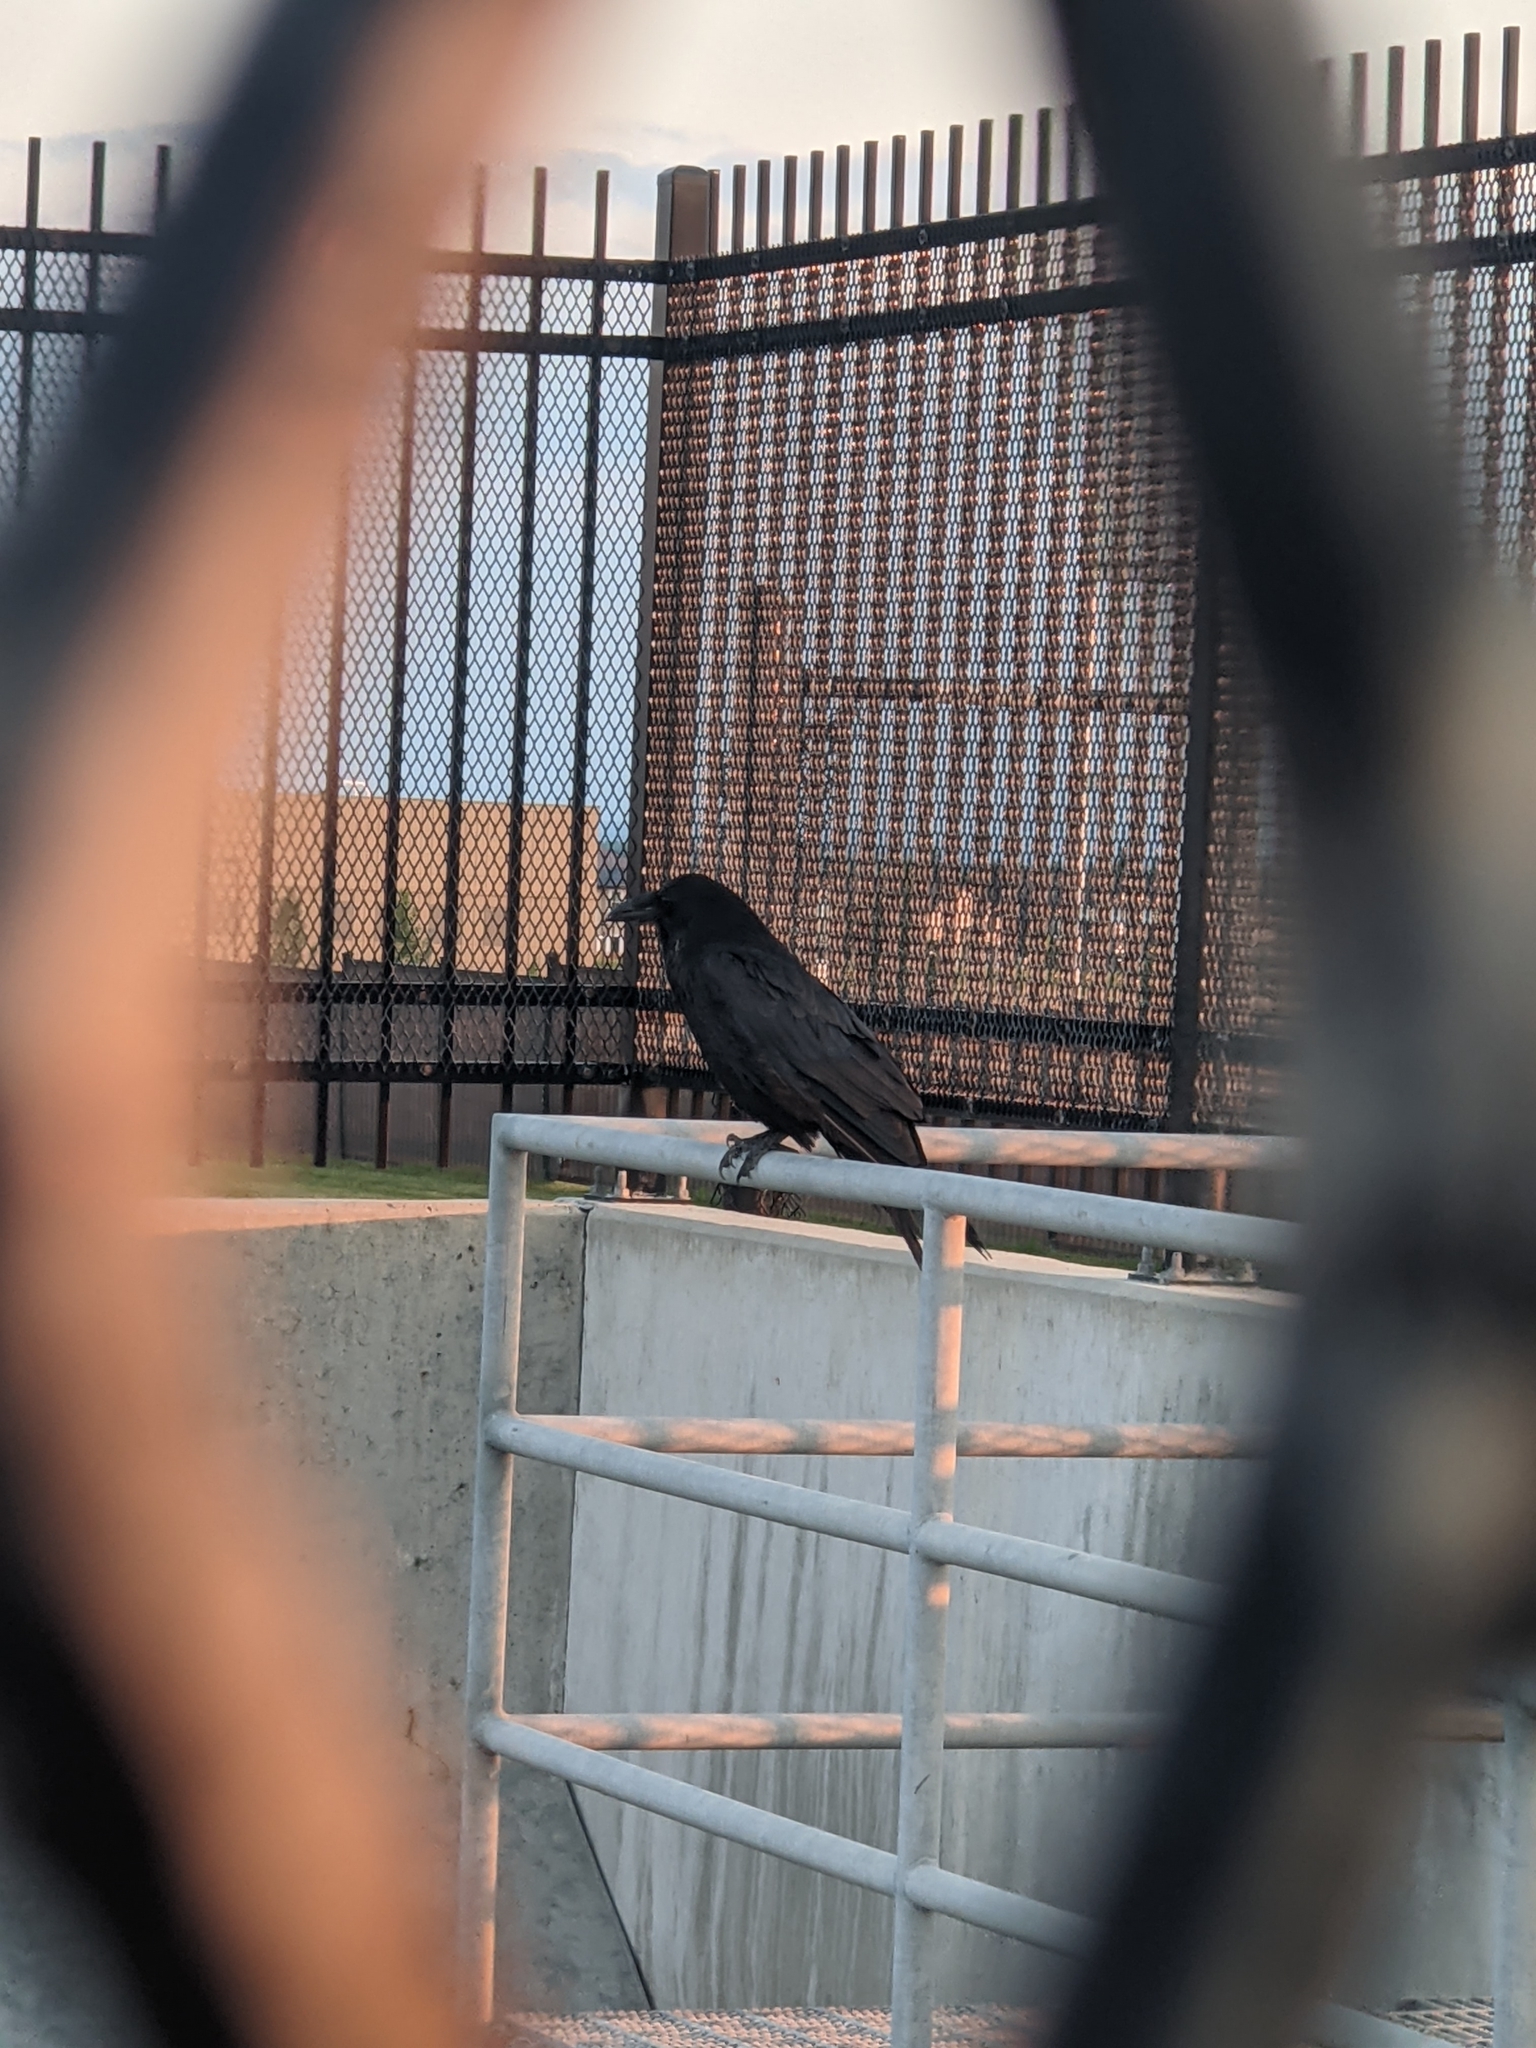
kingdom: Animalia
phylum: Chordata
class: Aves
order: Passeriformes
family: Corvidae
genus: Corvus
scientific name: Corvus corax
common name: Common raven
